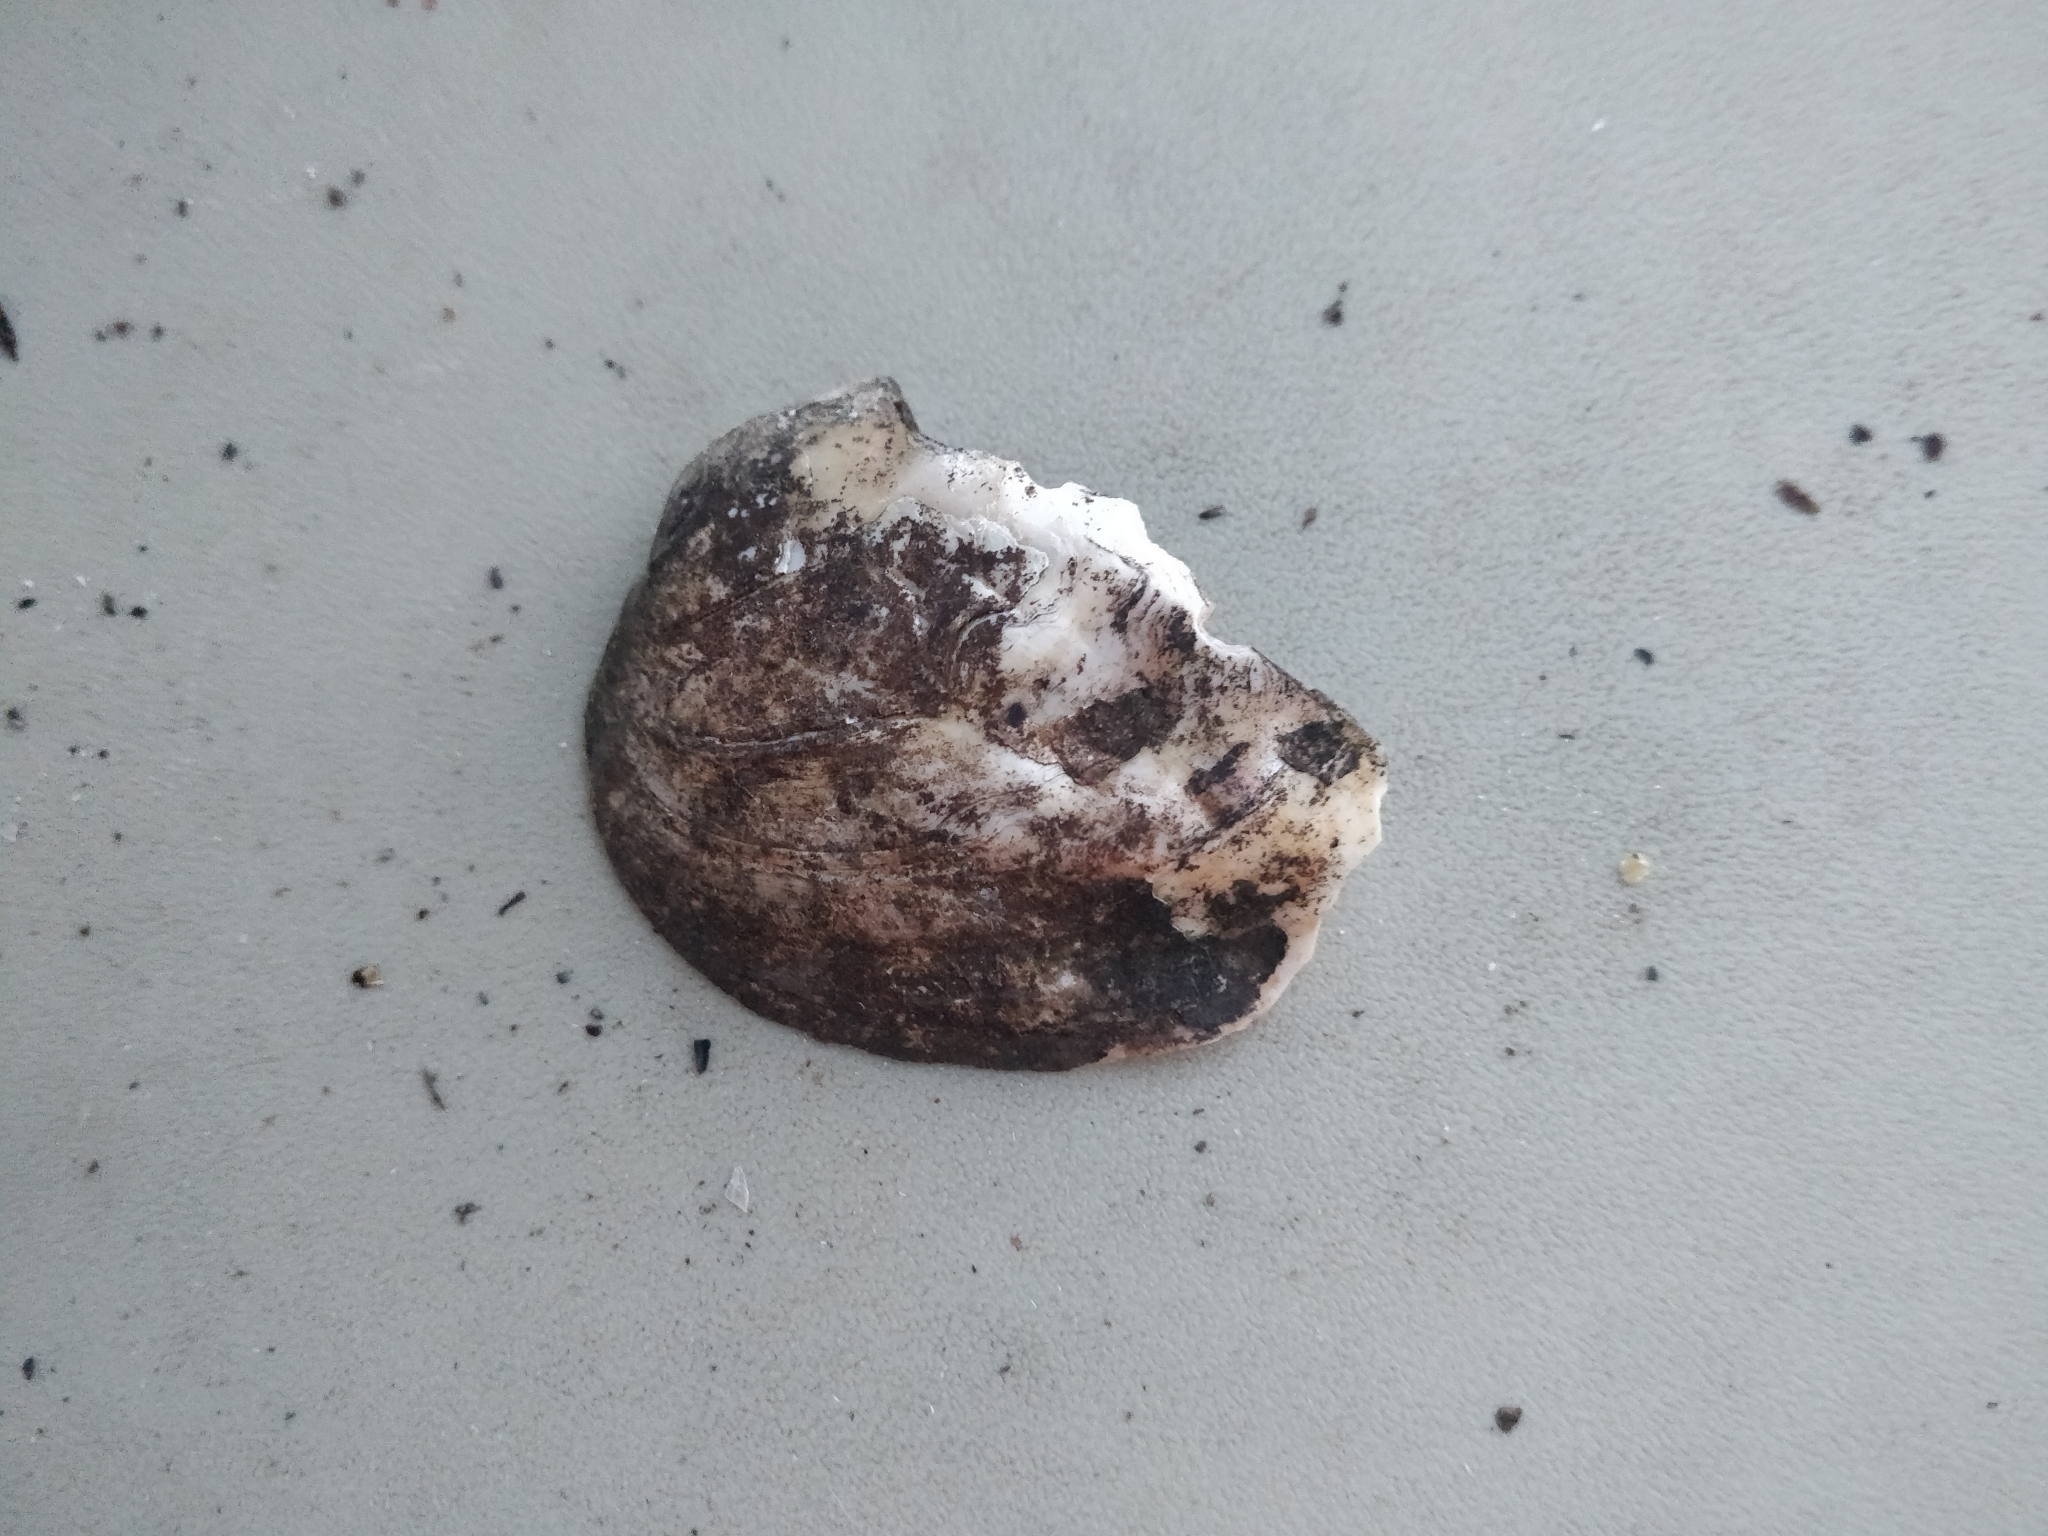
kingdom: Animalia
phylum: Mollusca
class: Bivalvia
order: Unionida
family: Unionidae
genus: Amblema
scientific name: Amblema plicata
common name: Threeridge
